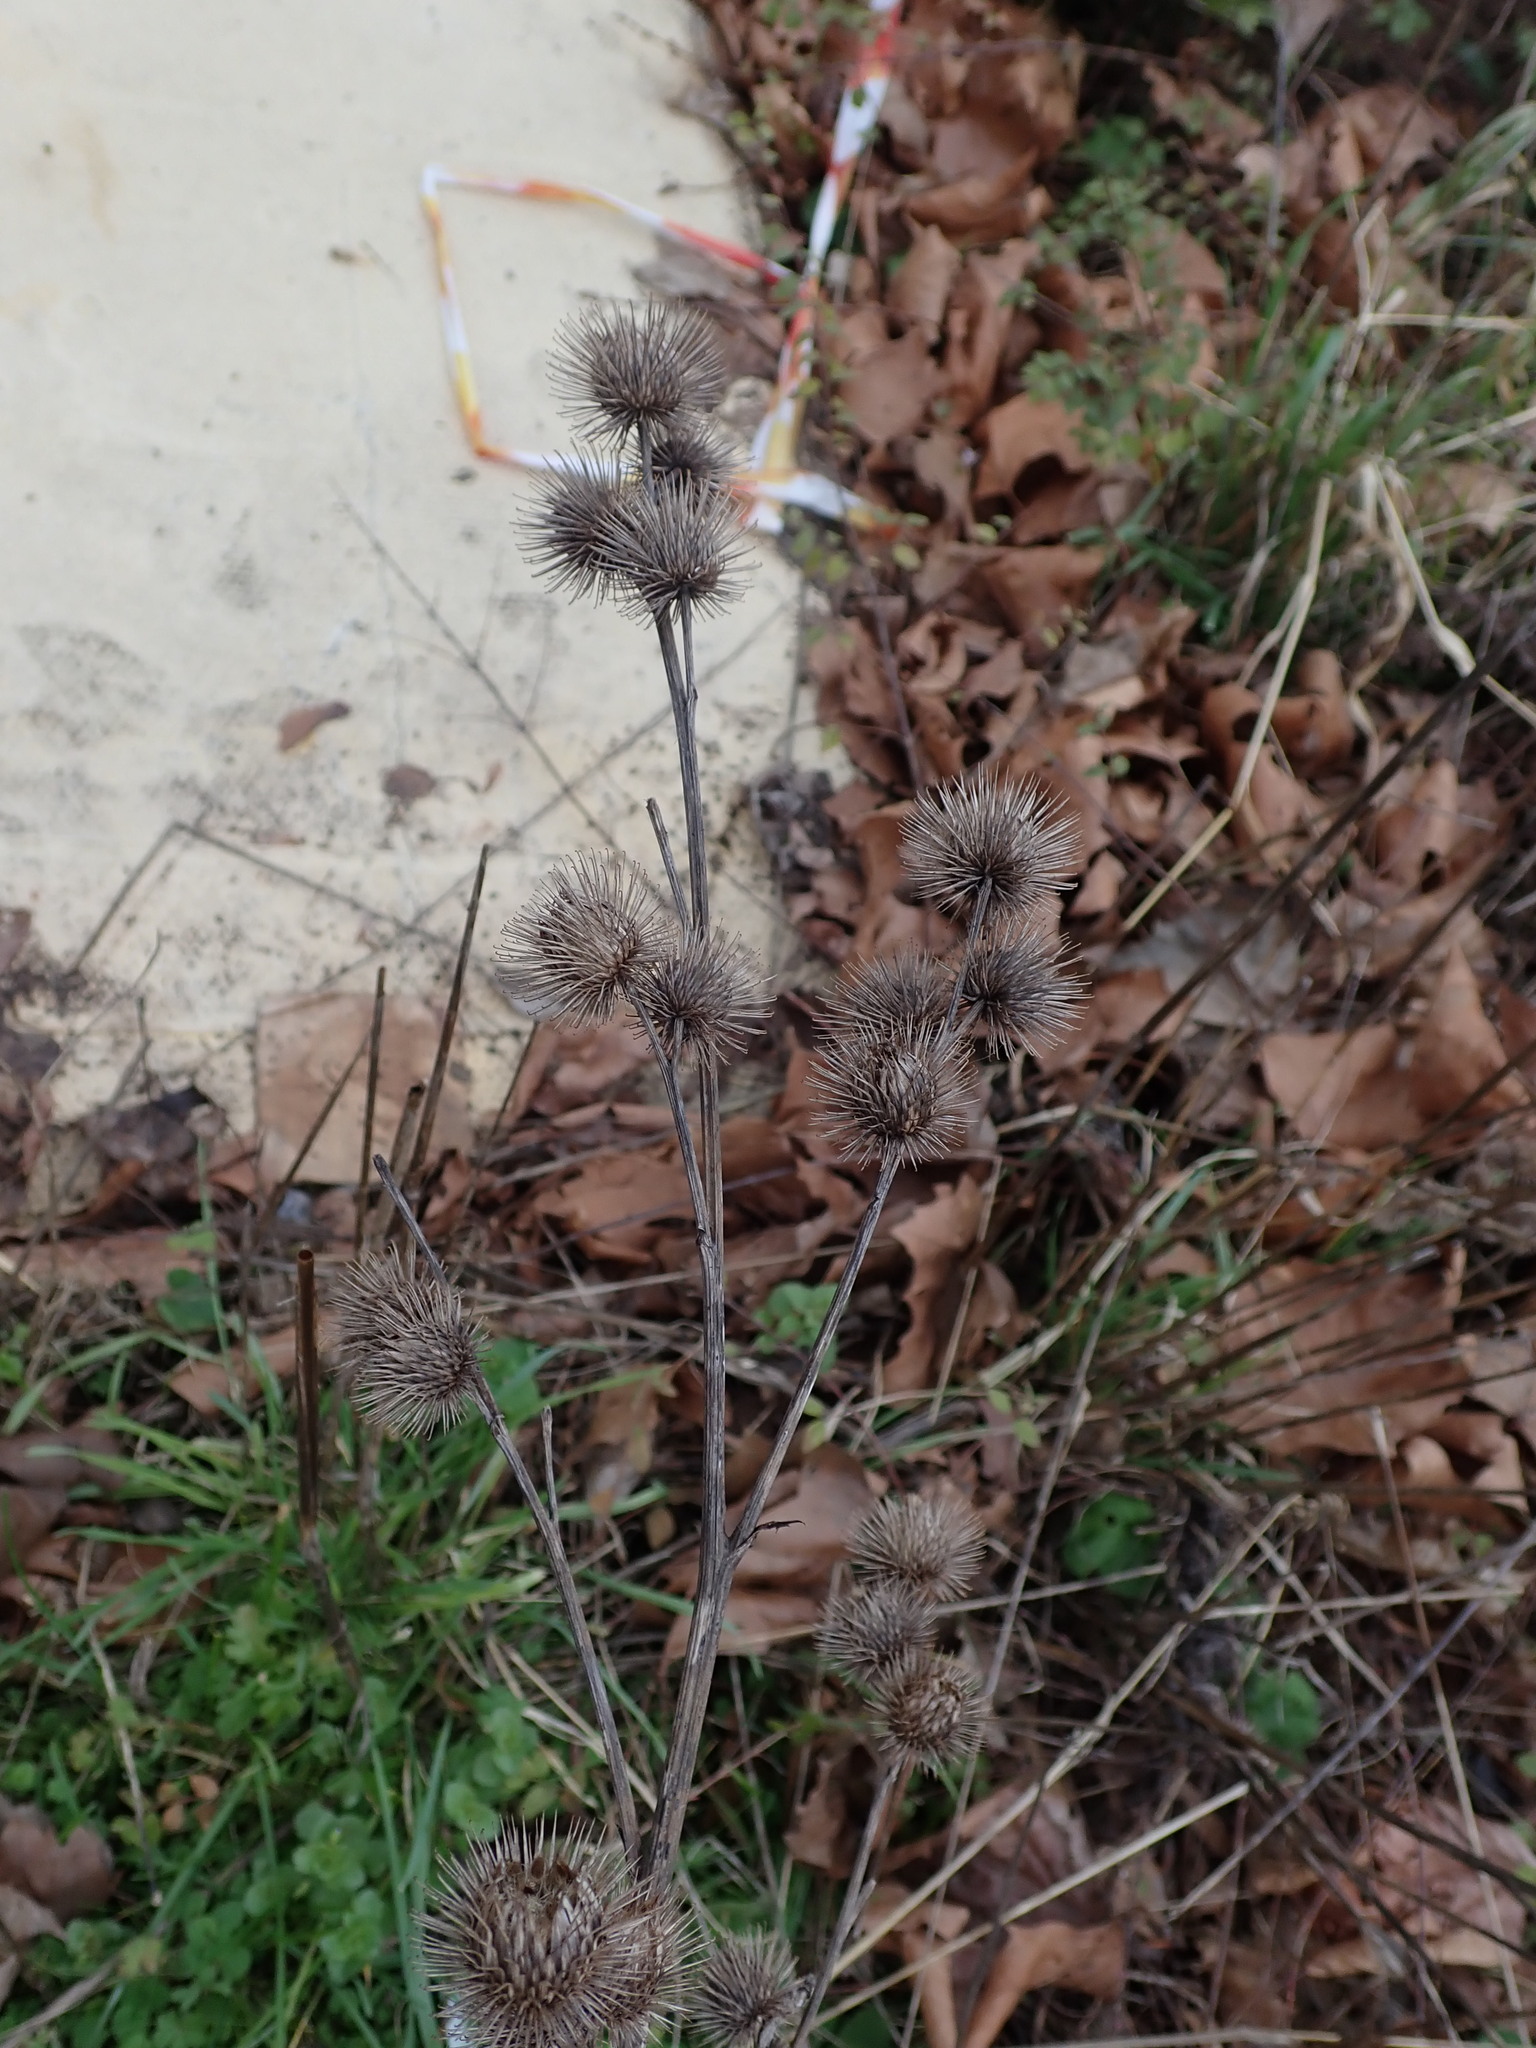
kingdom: Plantae
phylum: Tracheophyta
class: Magnoliopsida
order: Asterales
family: Asteraceae
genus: Arctium
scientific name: Arctium minus
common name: Lesser burdock
